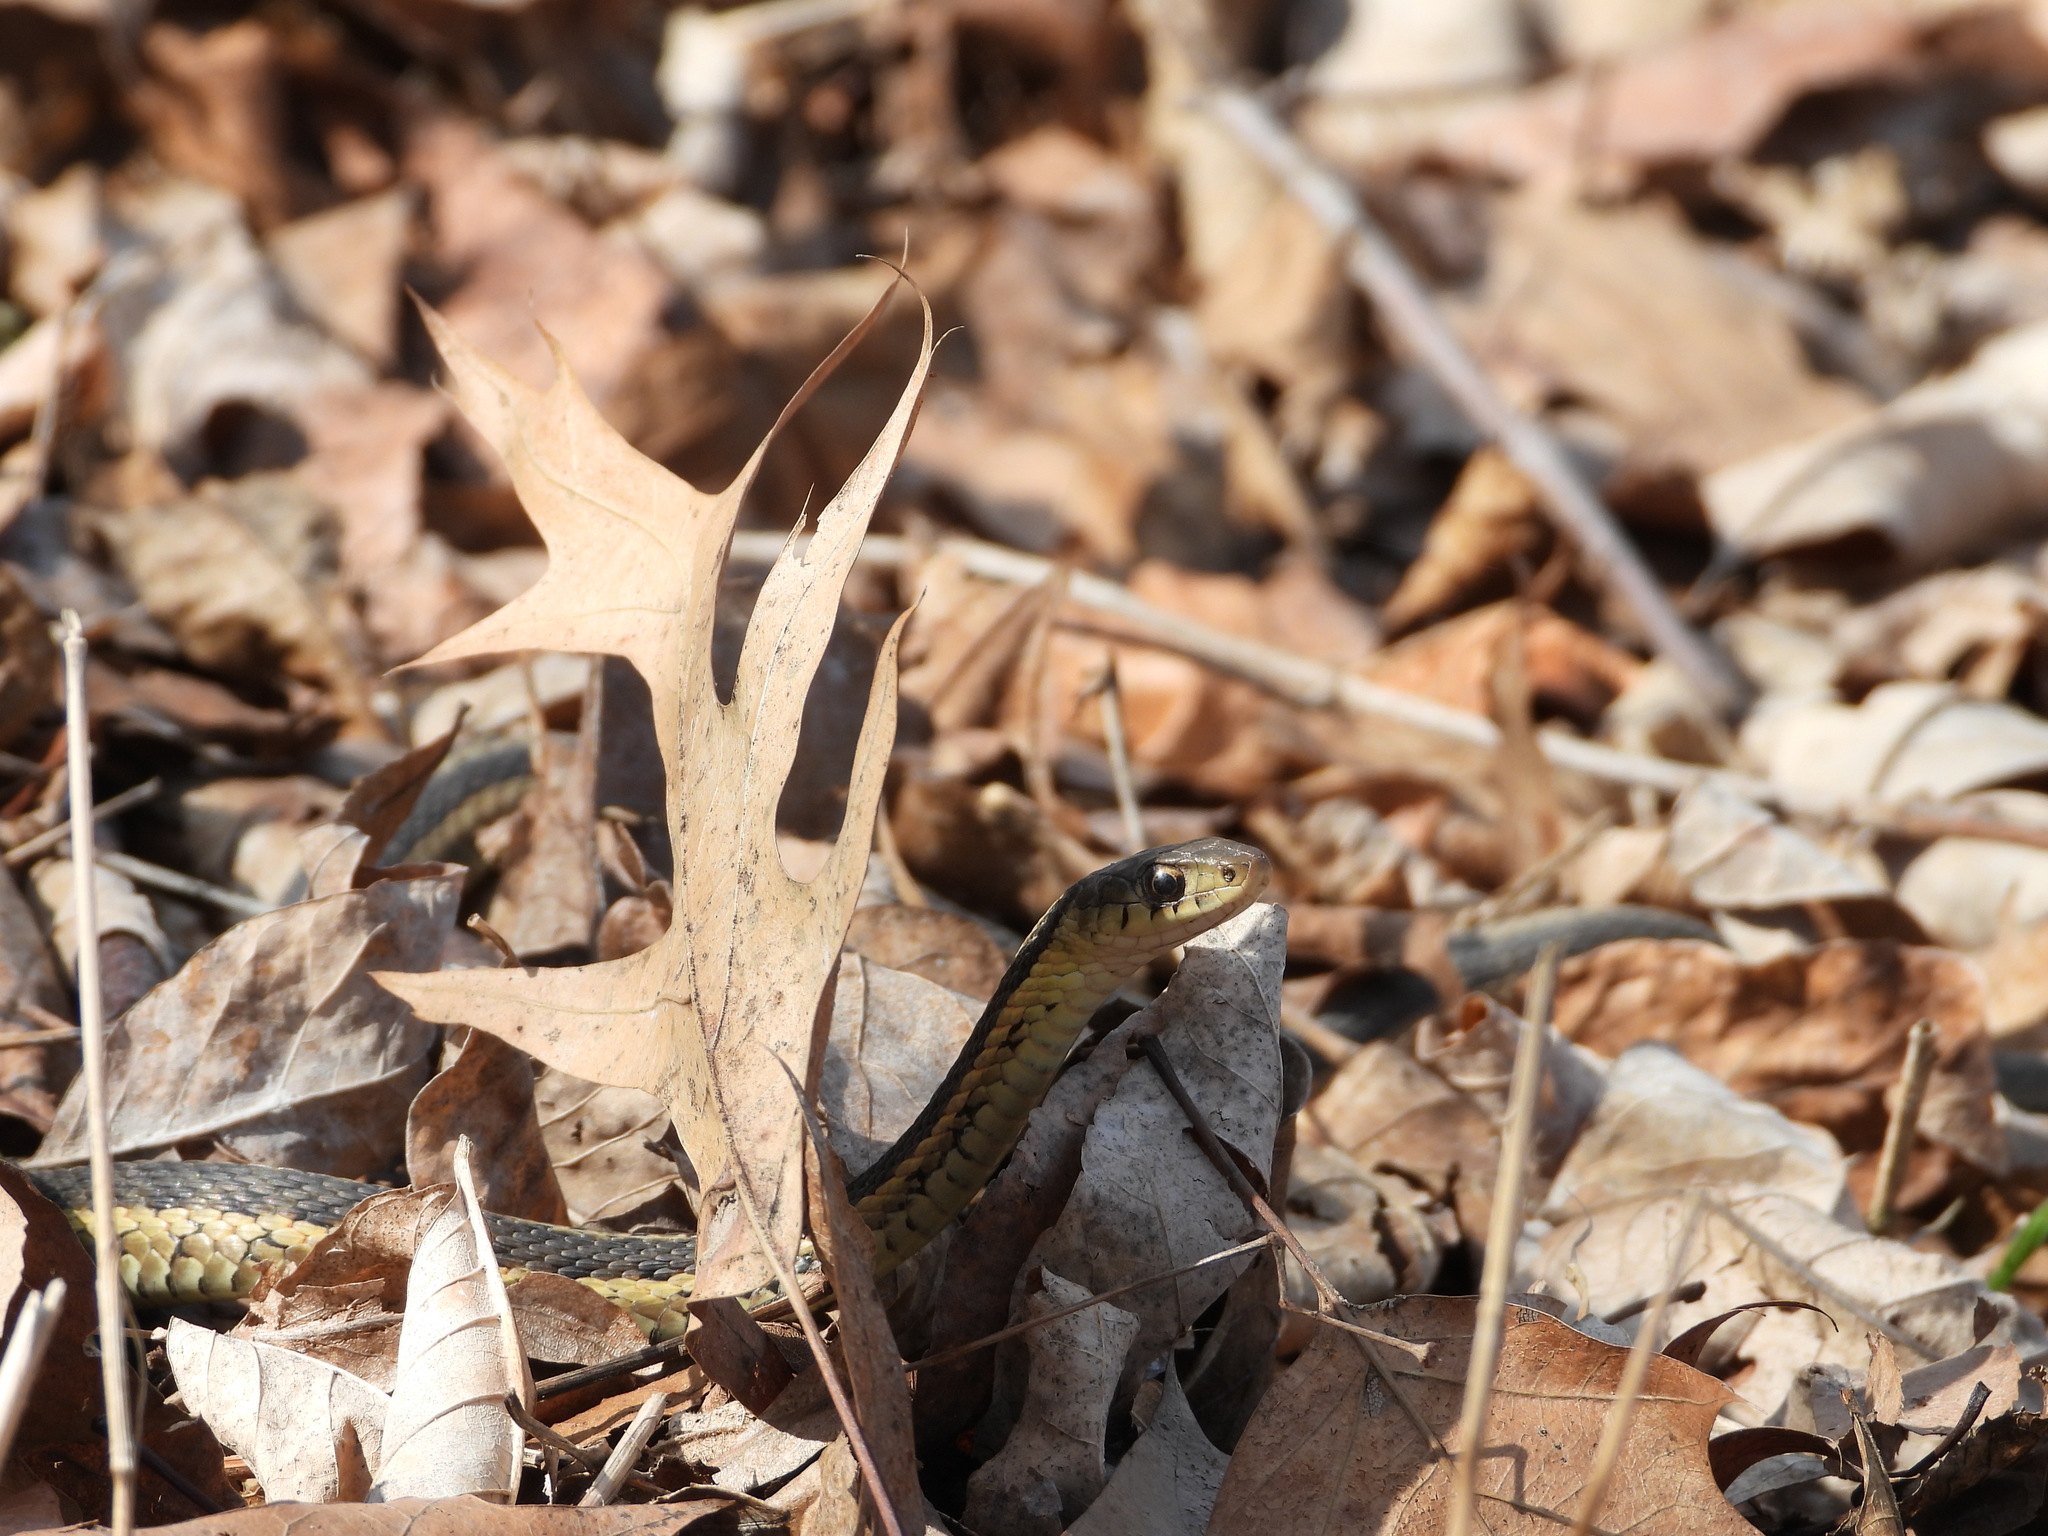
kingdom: Animalia
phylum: Chordata
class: Squamata
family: Colubridae
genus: Thamnophis
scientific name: Thamnophis sirtalis
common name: Common garter snake
